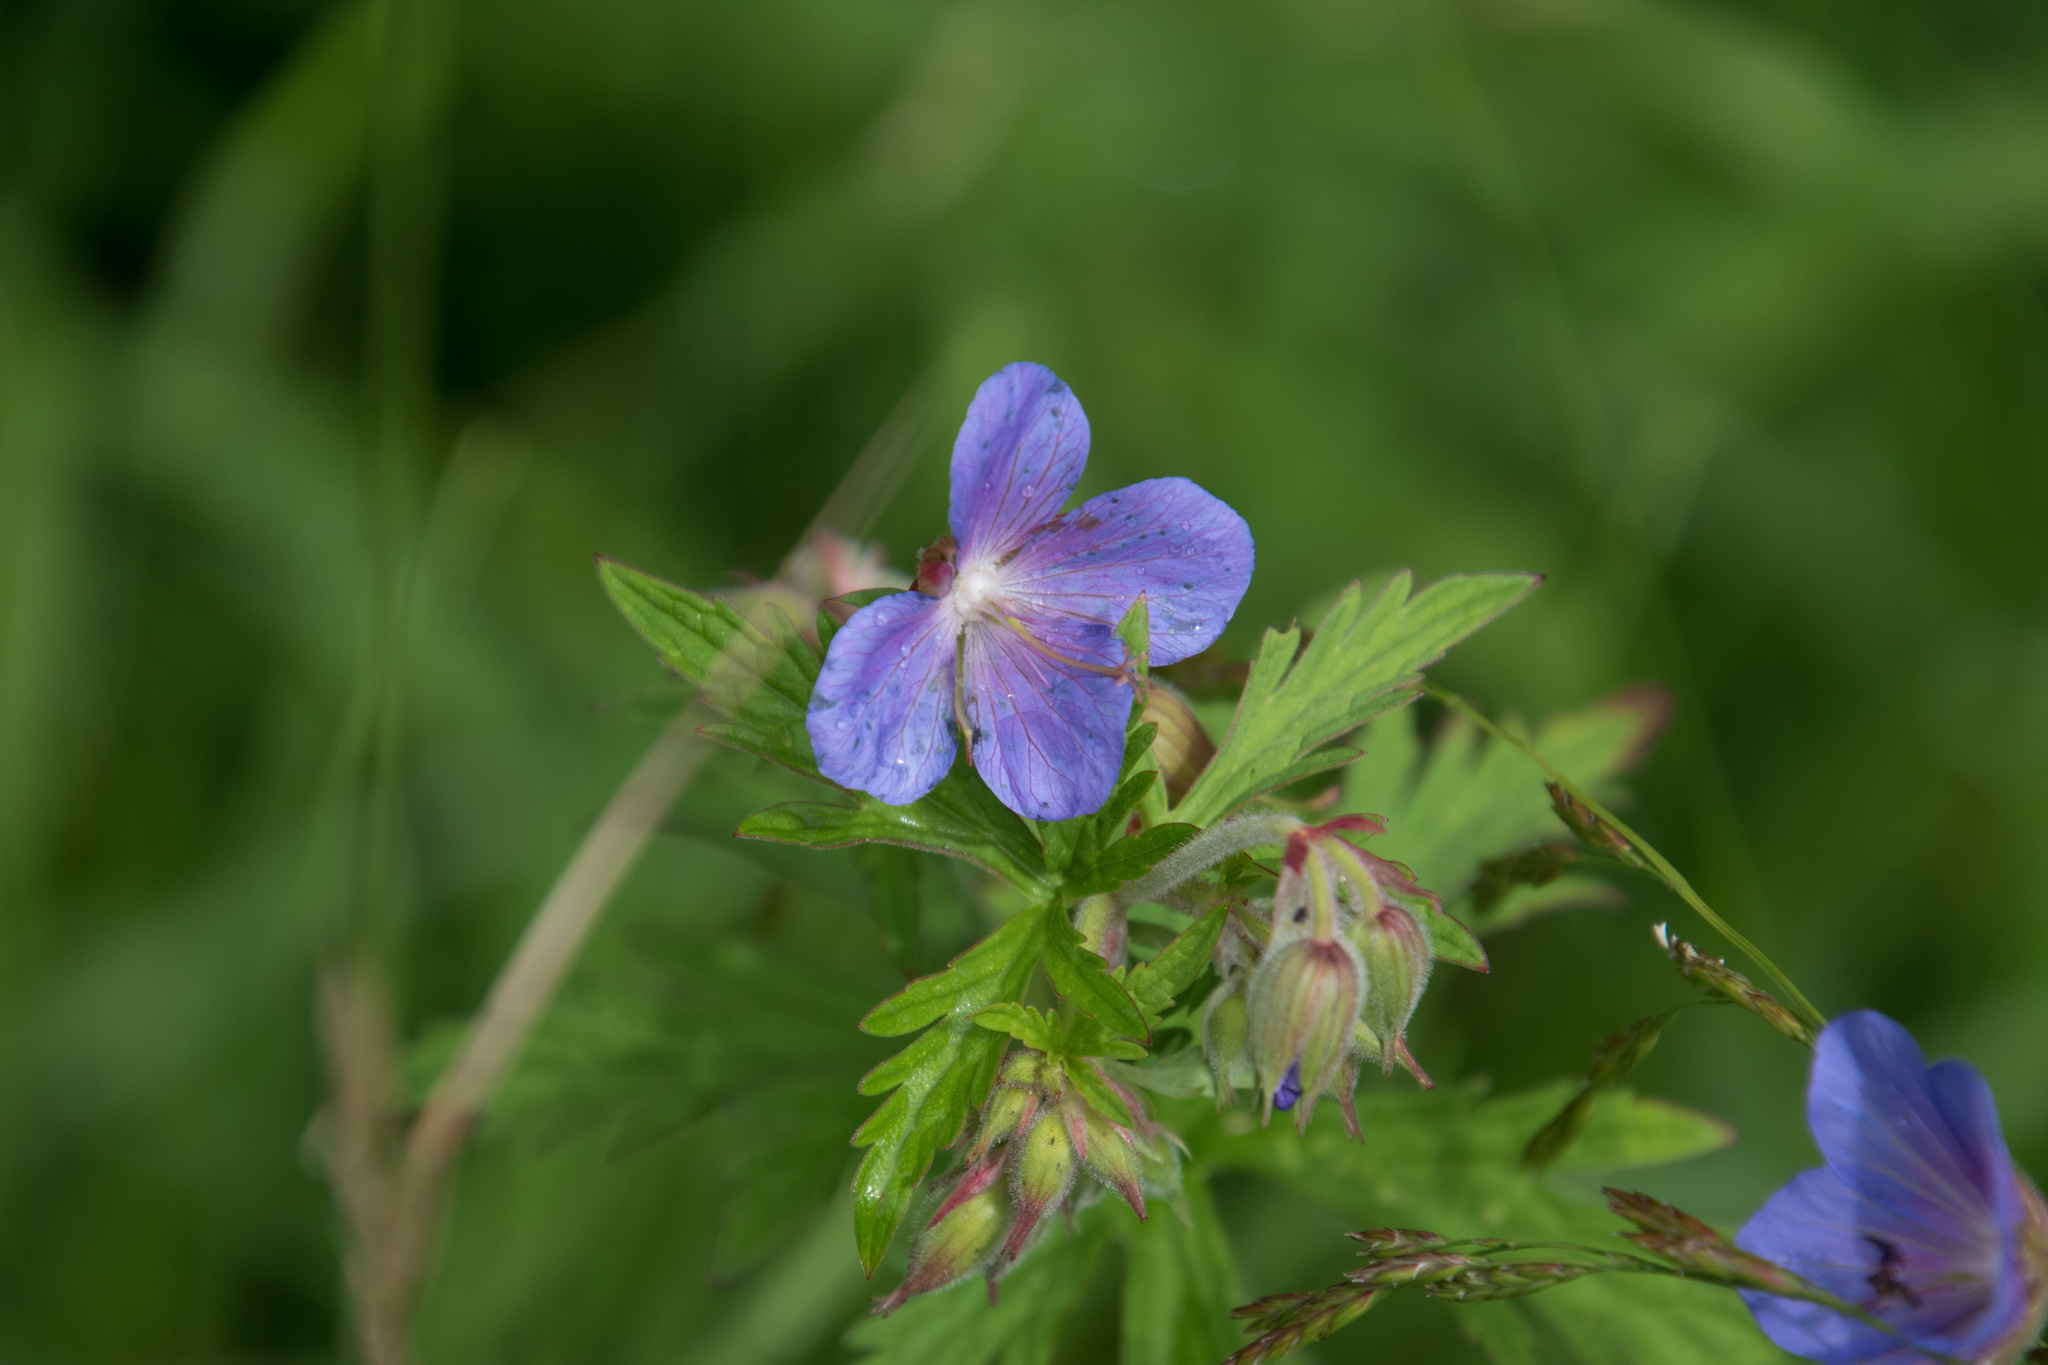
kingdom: Plantae
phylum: Tracheophyta
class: Magnoliopsida
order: Geraniales
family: Geraniaceae
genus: Geranium
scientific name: Geranium pratense
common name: Meadow crane's-bill
